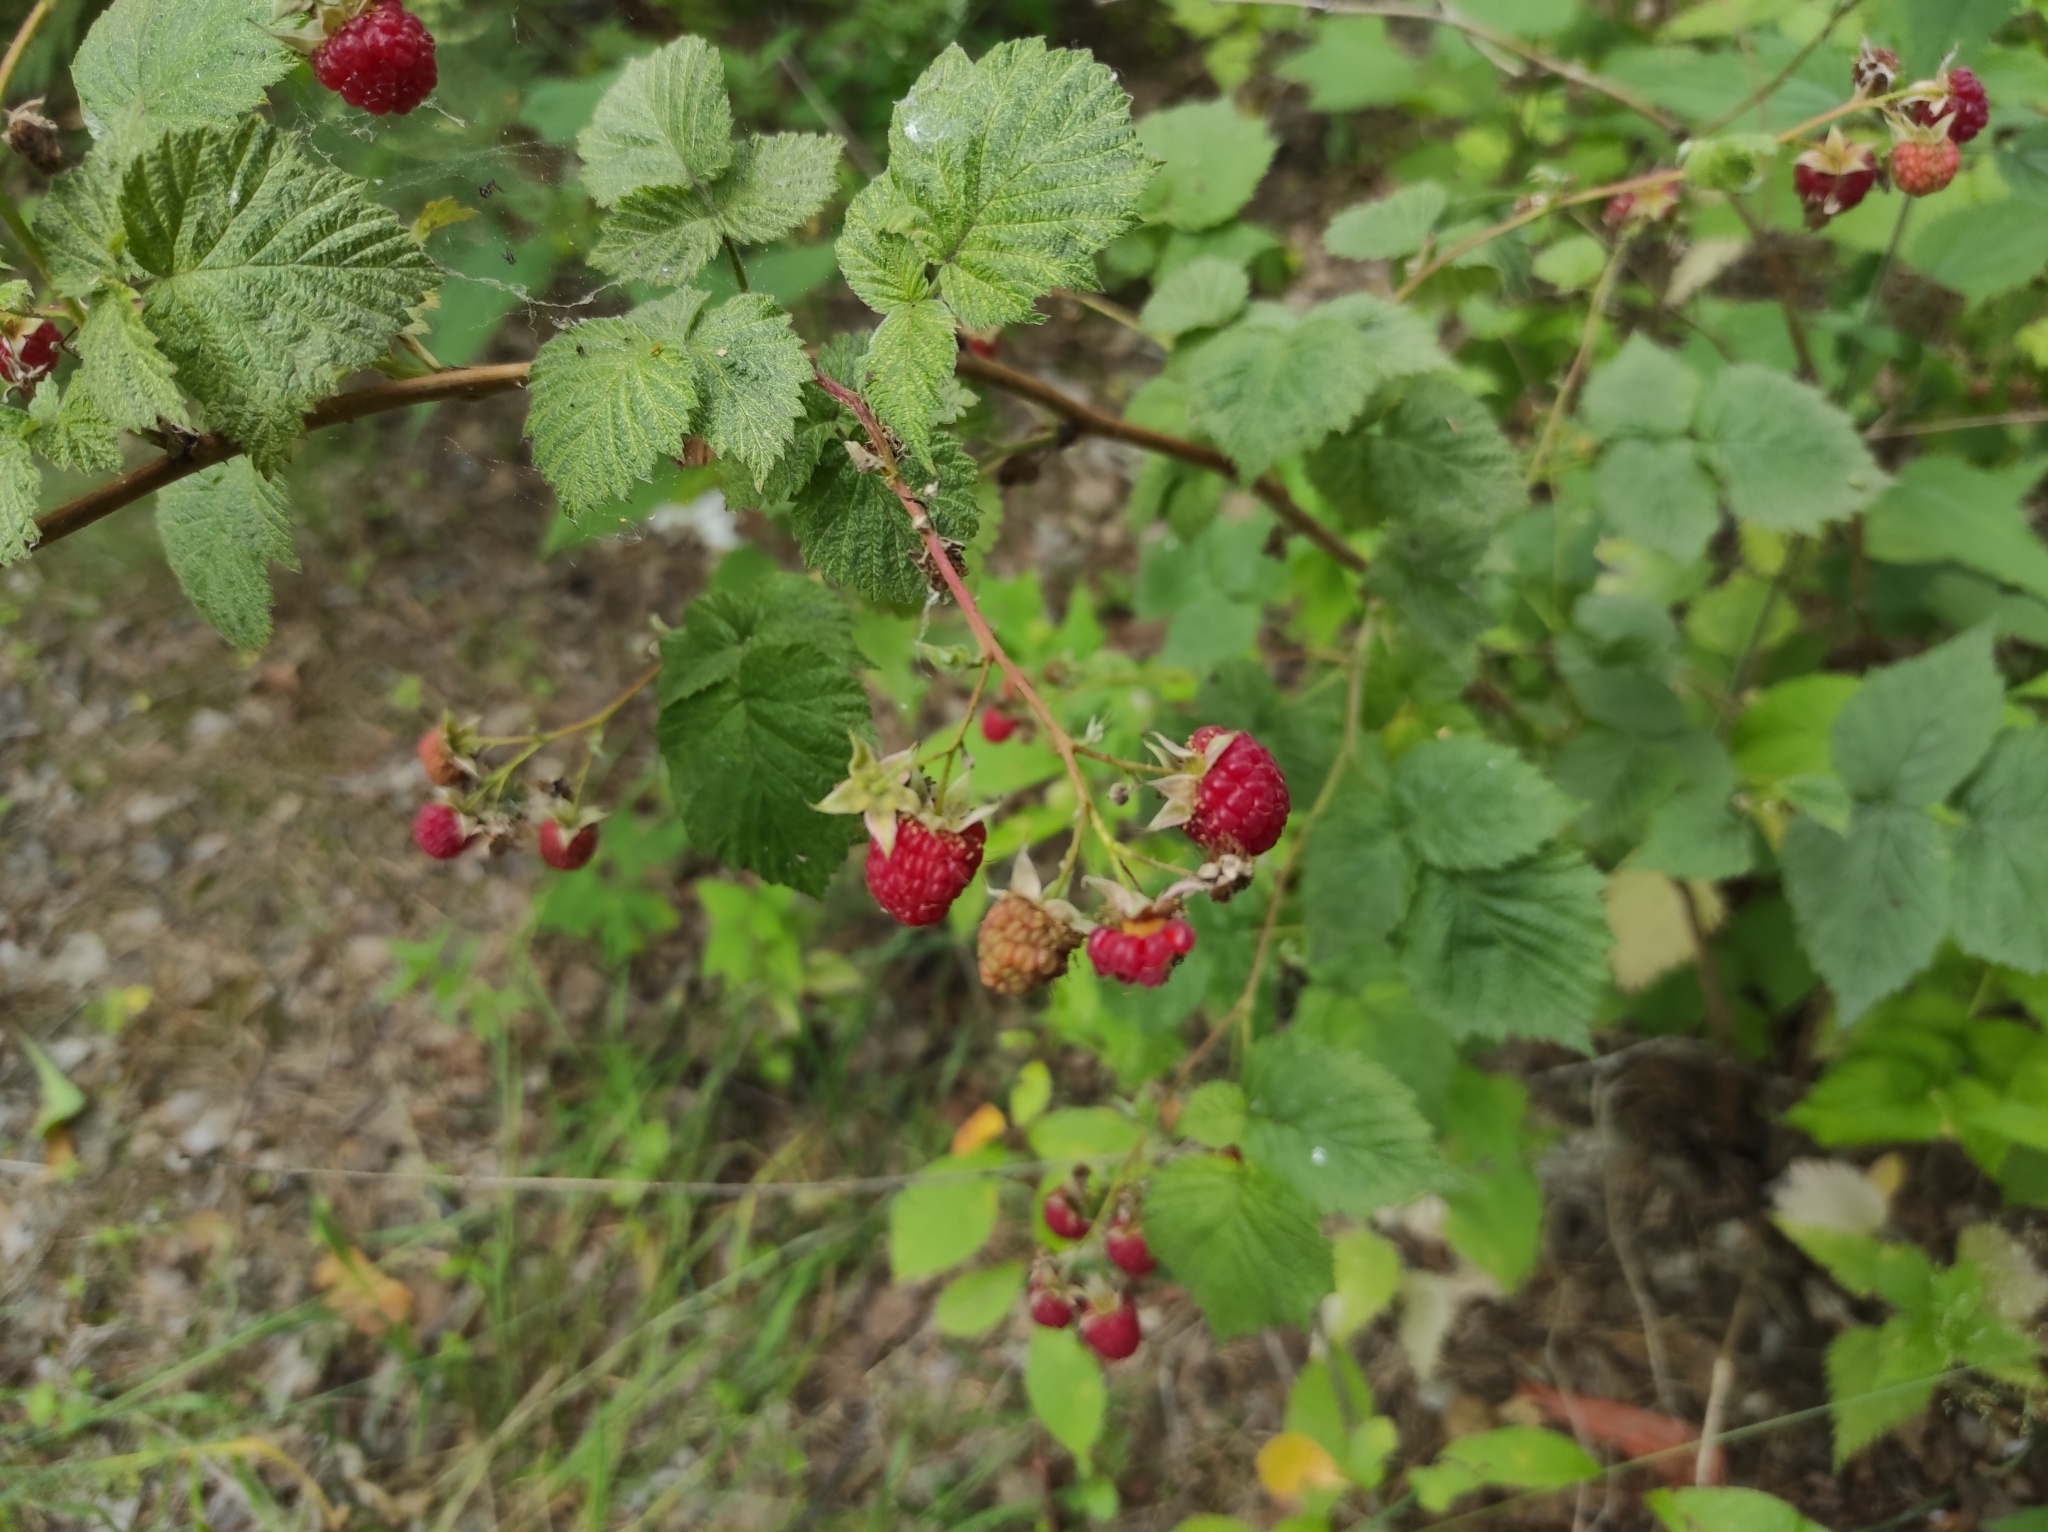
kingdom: Plantae
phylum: Tracheophyta
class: Magnoliopsida
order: Rosales
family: Rosaceae
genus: Rubus
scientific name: Rubus idaeus
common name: Raspberry
